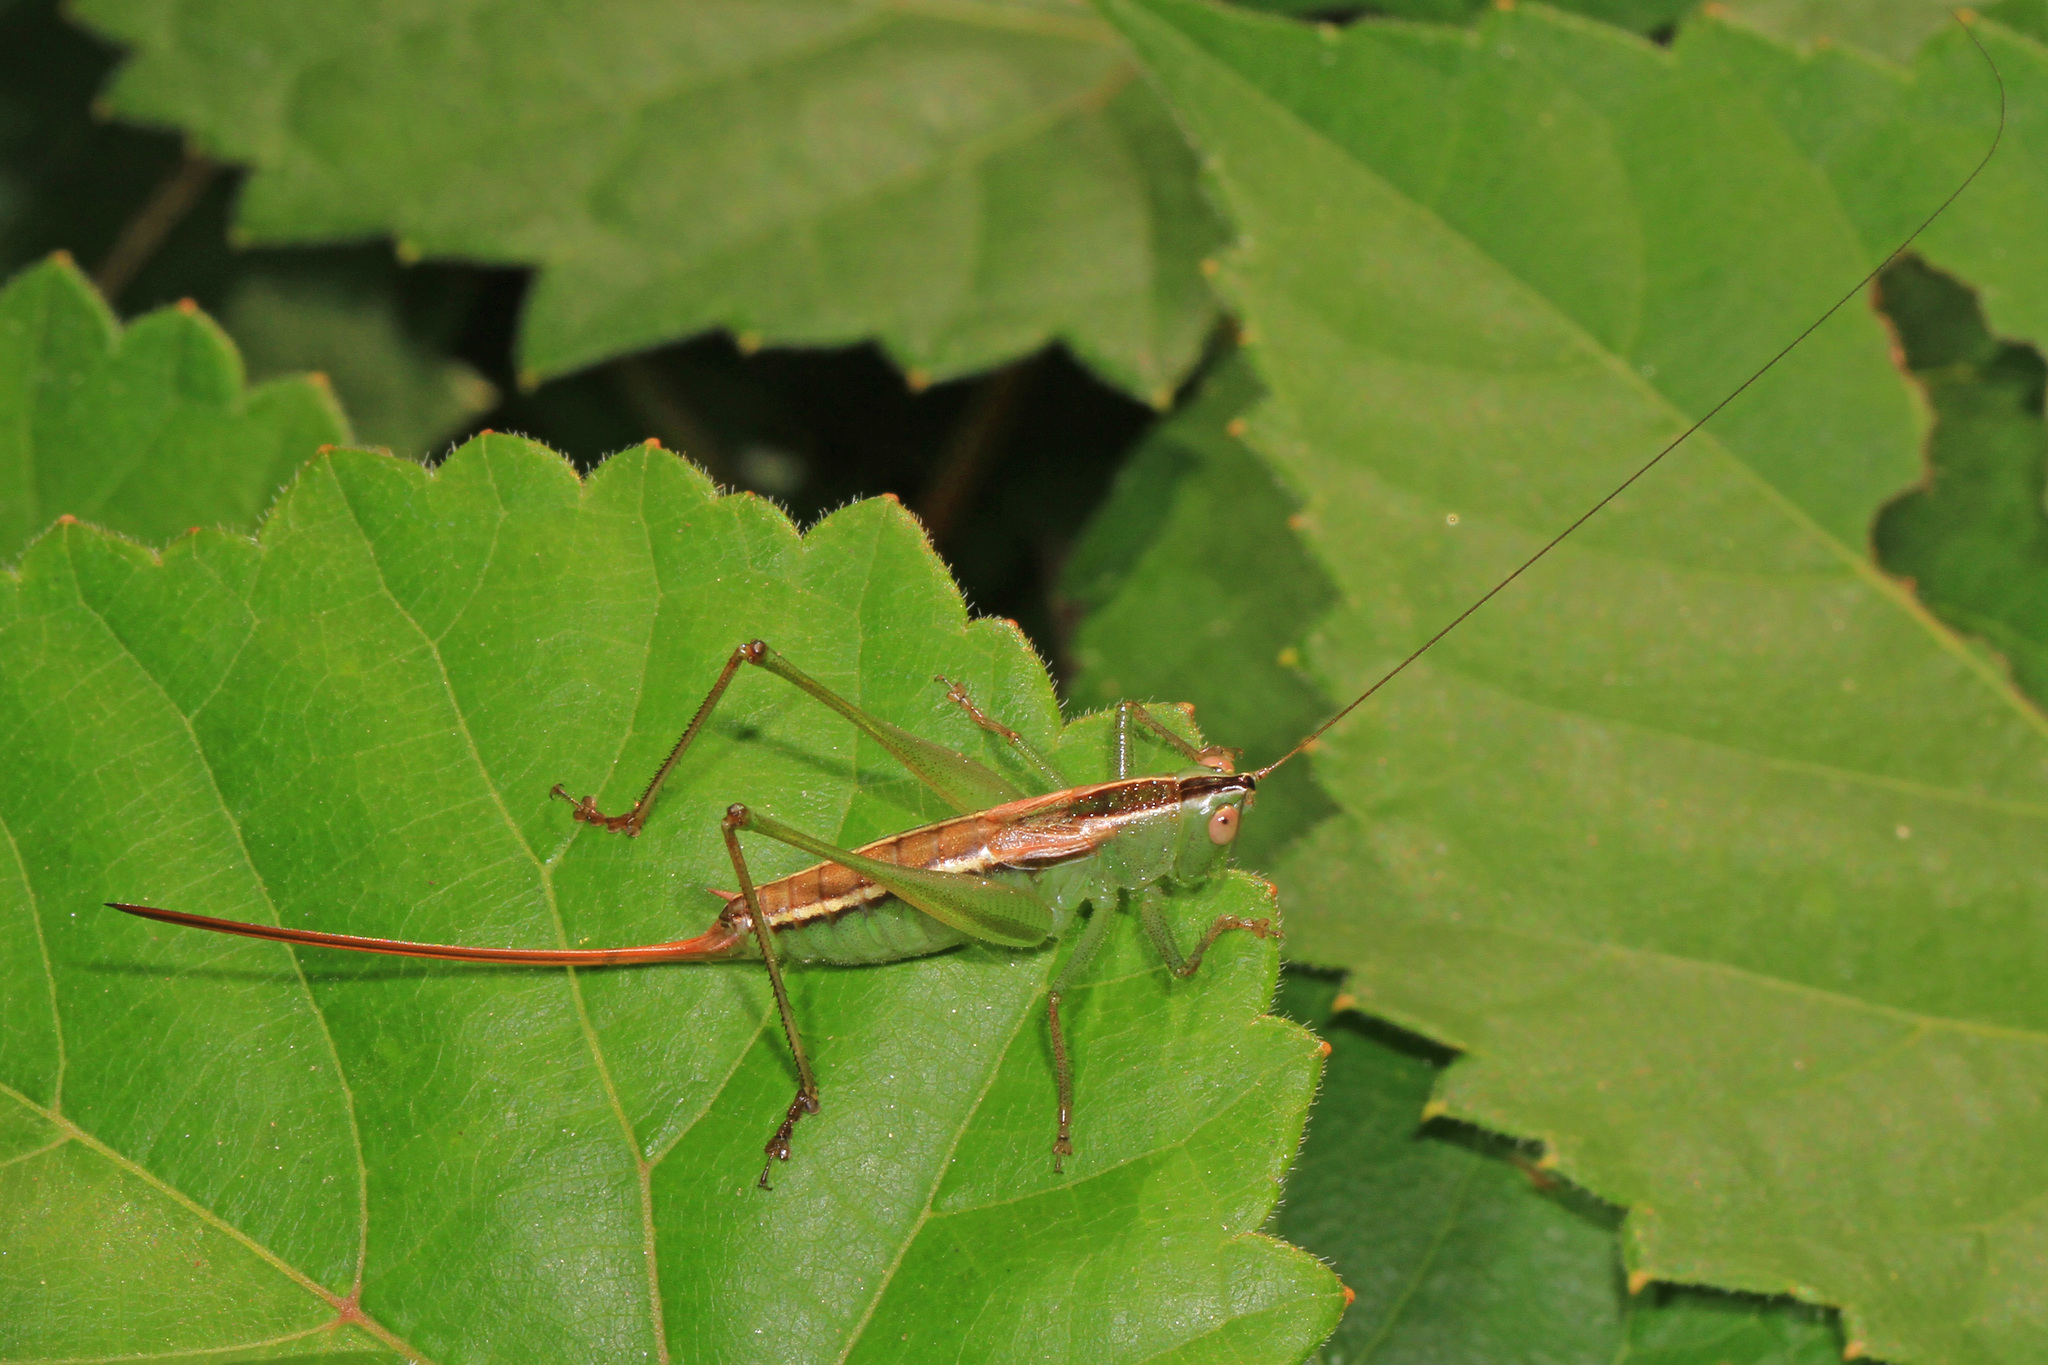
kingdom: Animalia
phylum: Arthropoda
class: Insecta
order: Orthoptera
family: Tettigoniidae
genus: Conocephalus
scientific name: Conocephalus strictus
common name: Straight-lanced katydid
